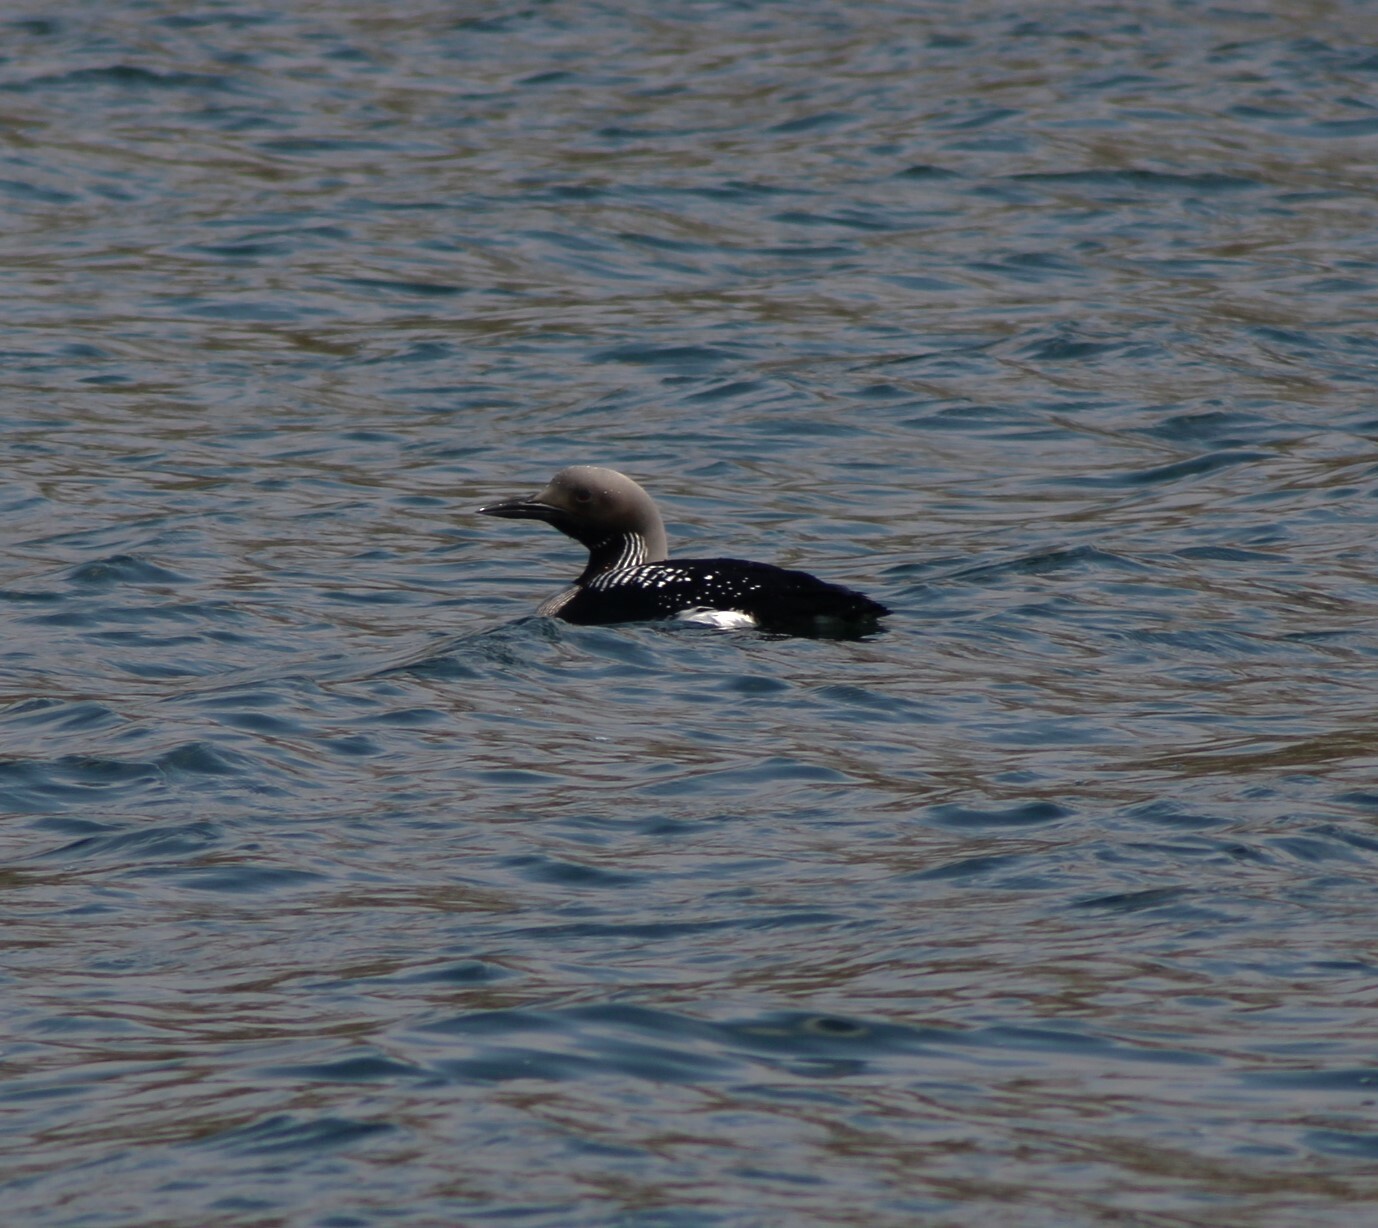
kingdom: Animalia
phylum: Chordata
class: Aves
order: Gaviiformes
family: Gaviidae
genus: Gavia
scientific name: Gavia arctica
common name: Black-throated loon
